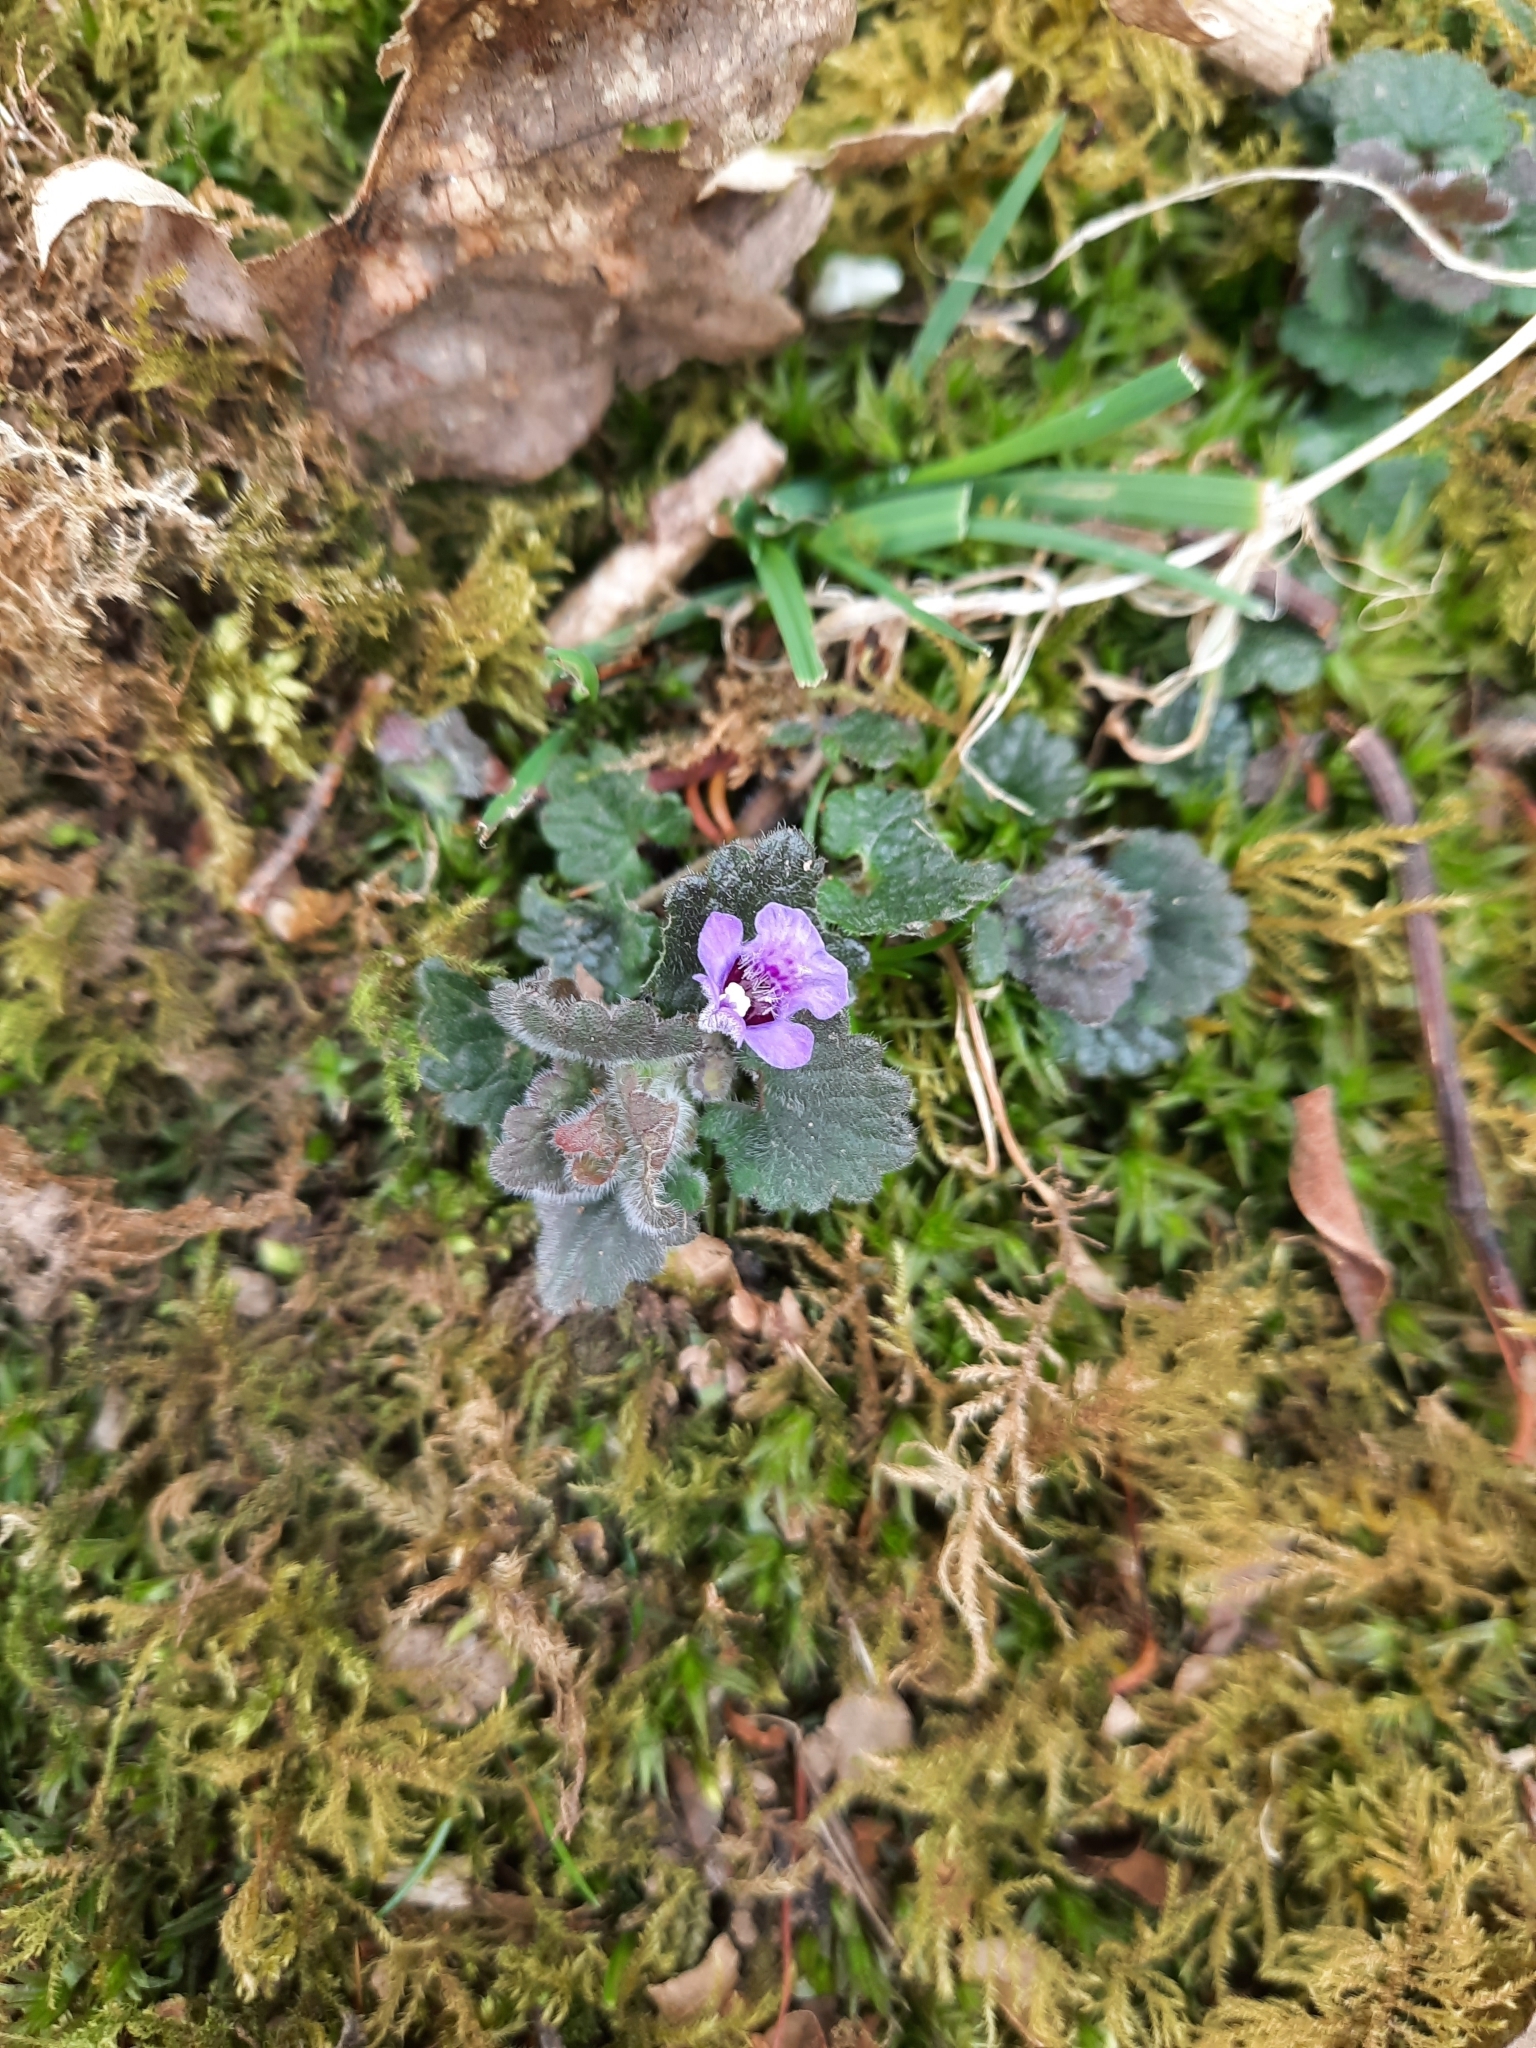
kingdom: Plantae
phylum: Tracheophyta
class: Magnoliopsida
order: Lamiales
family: Lamiaceae
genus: Glechoma
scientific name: Glechoma hederacea
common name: Ground ivy
